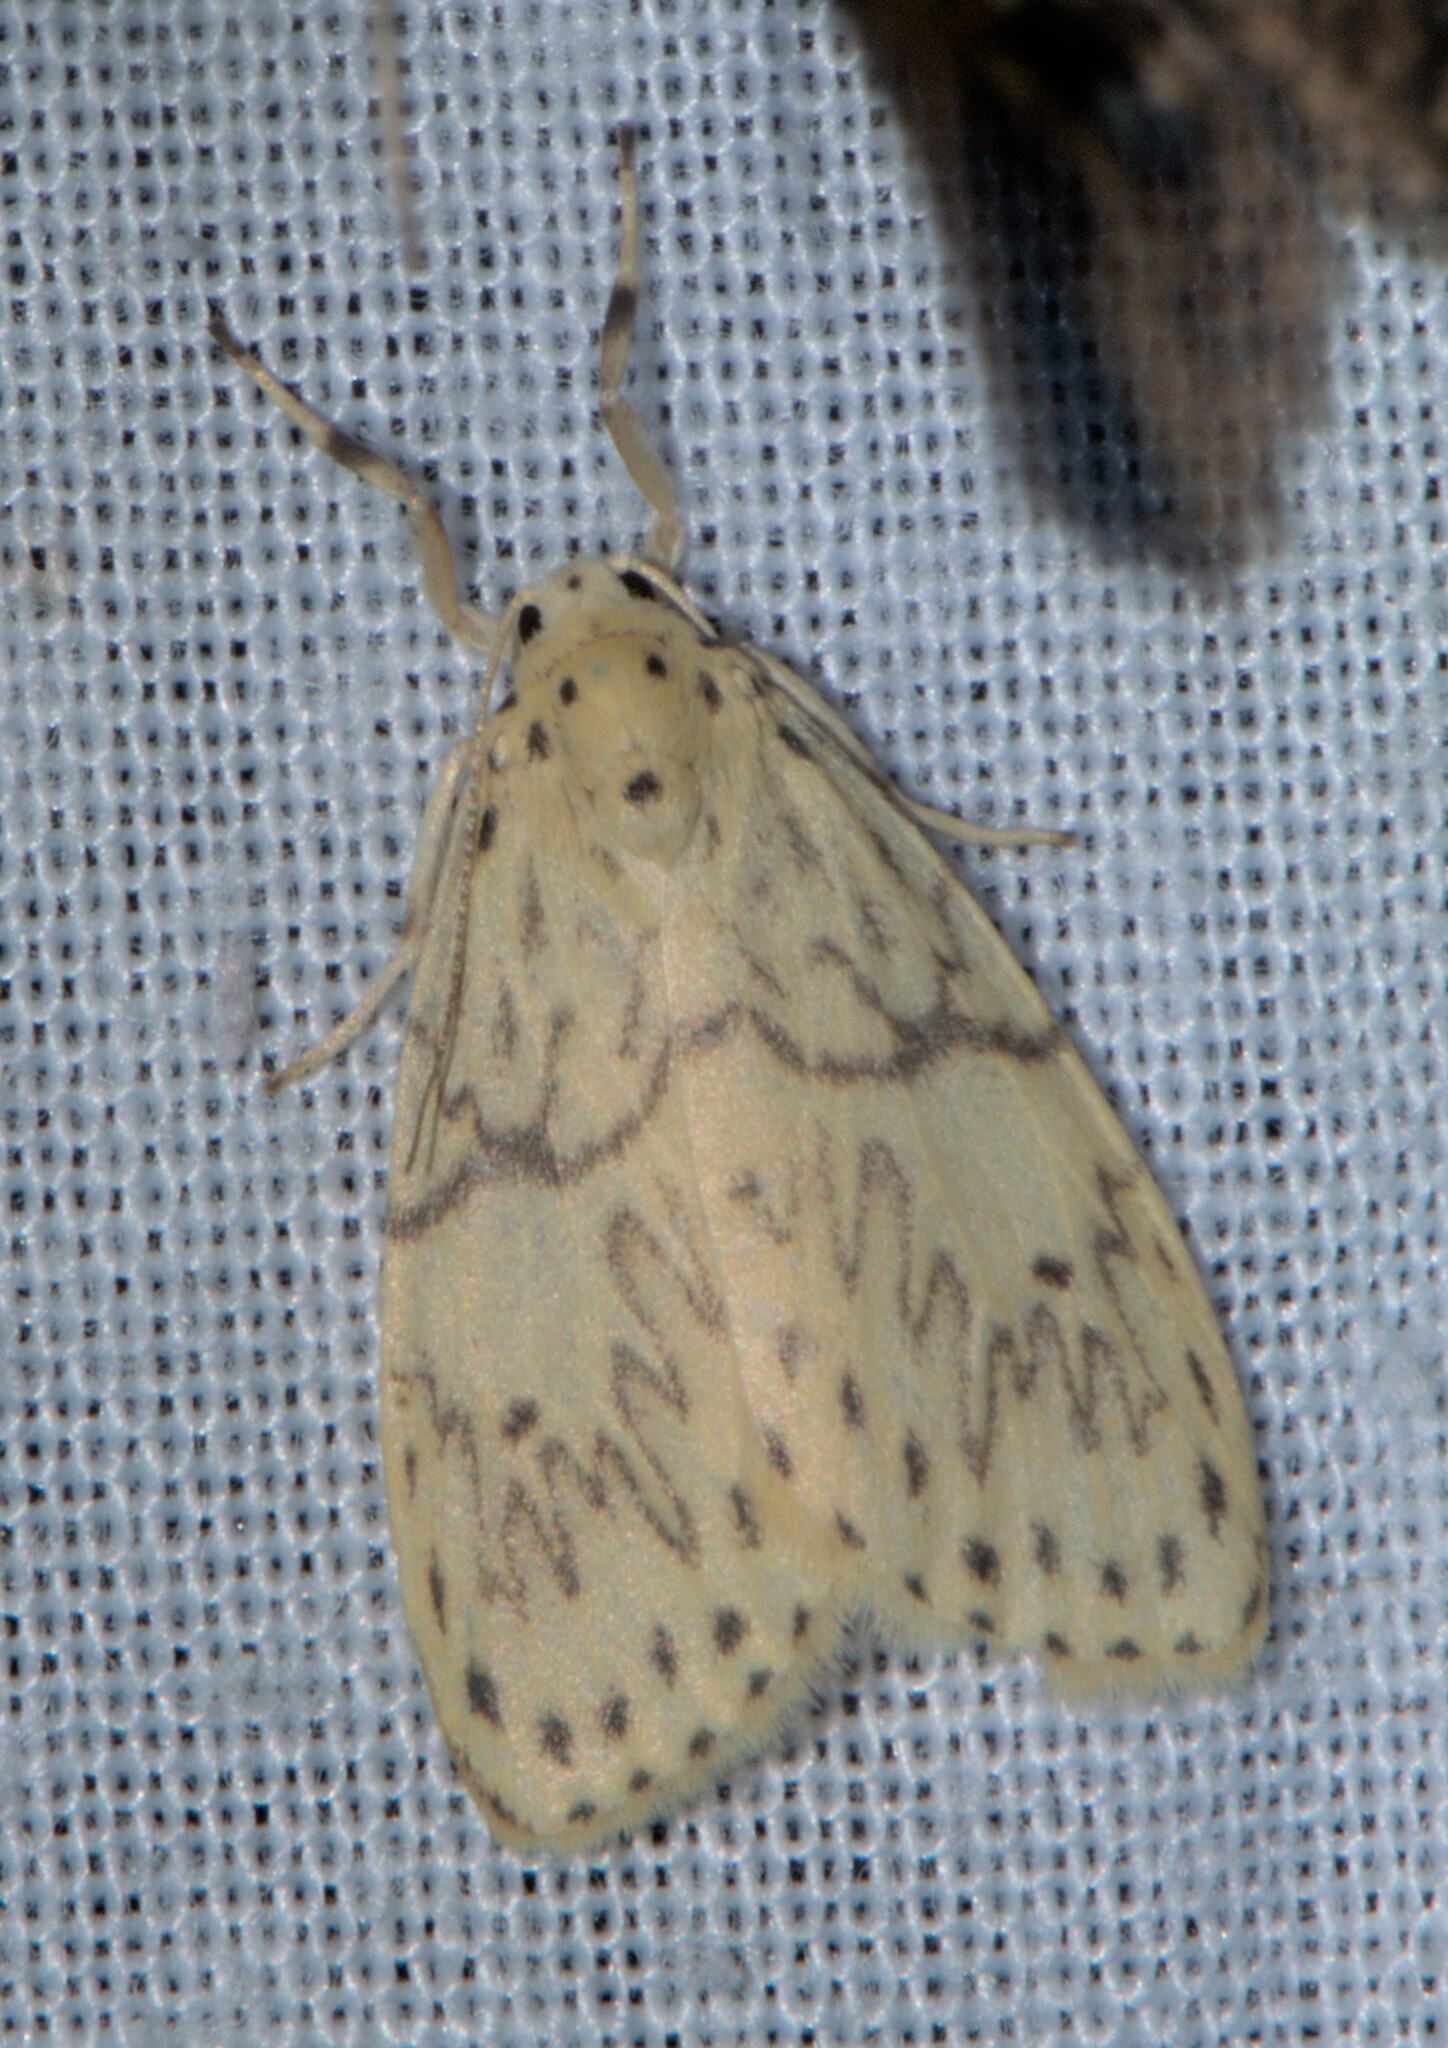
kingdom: Animalia
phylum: Arthropoda
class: Insecta
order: Lepidoptera
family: Erebidae
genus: Miltochrista
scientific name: Miltochrista undulosa
